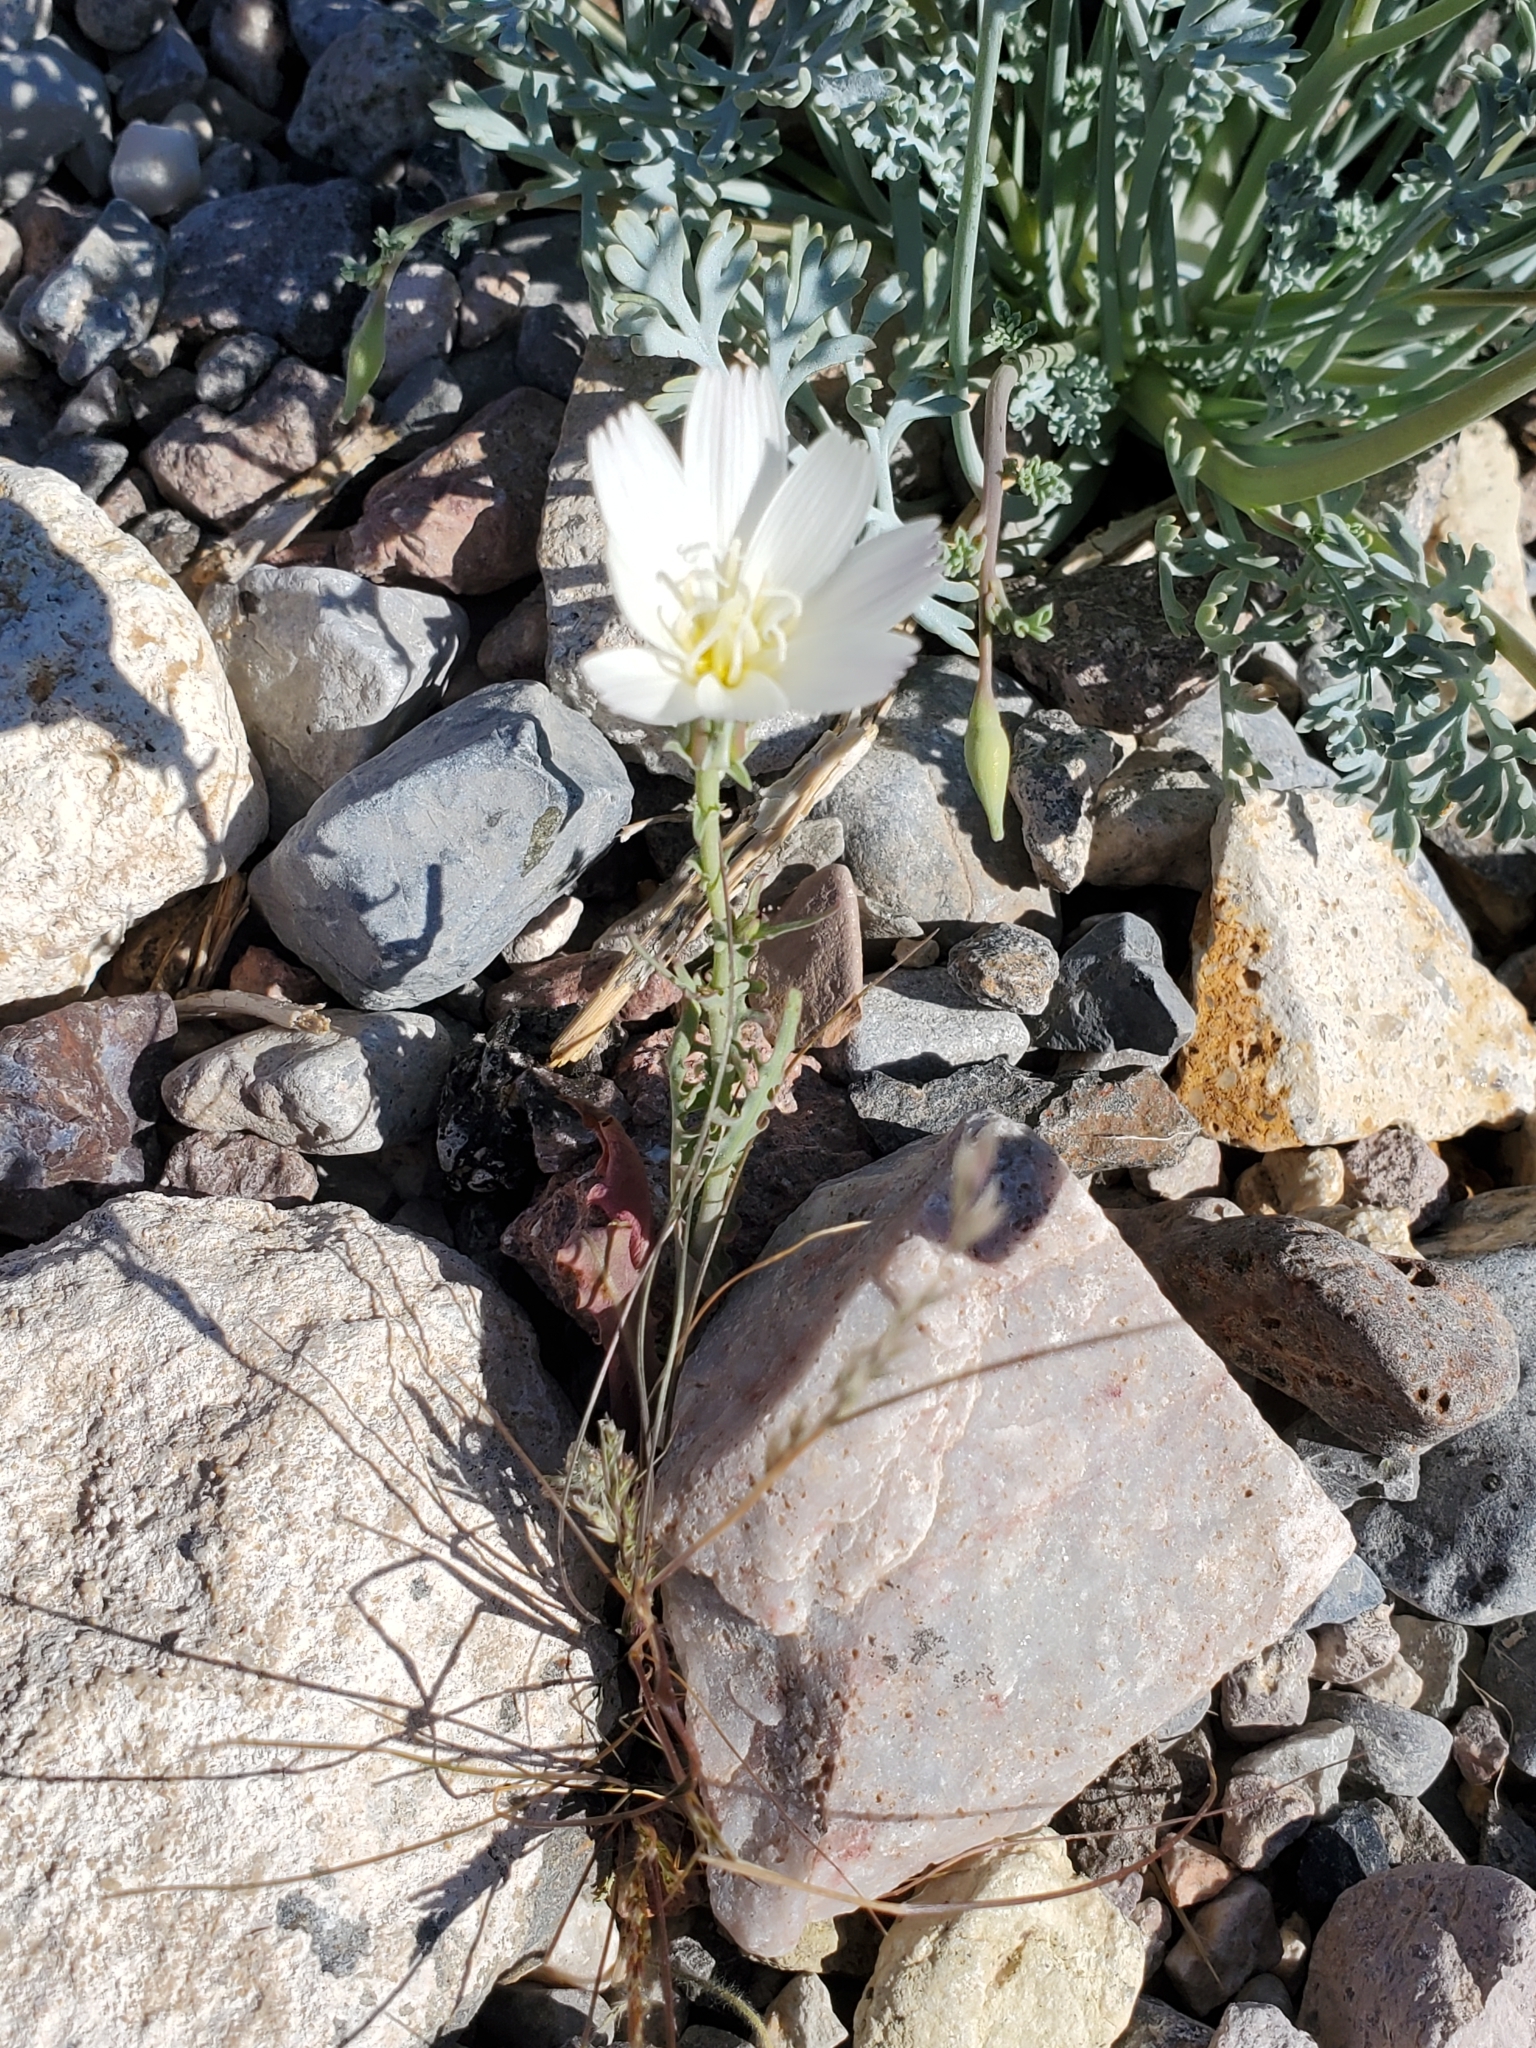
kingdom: Plantae
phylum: Tracheophyta
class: Magnoliopsida
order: Asterales
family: Asteraceae
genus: Rafinesquia
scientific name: Rafinesquia neomexicana
